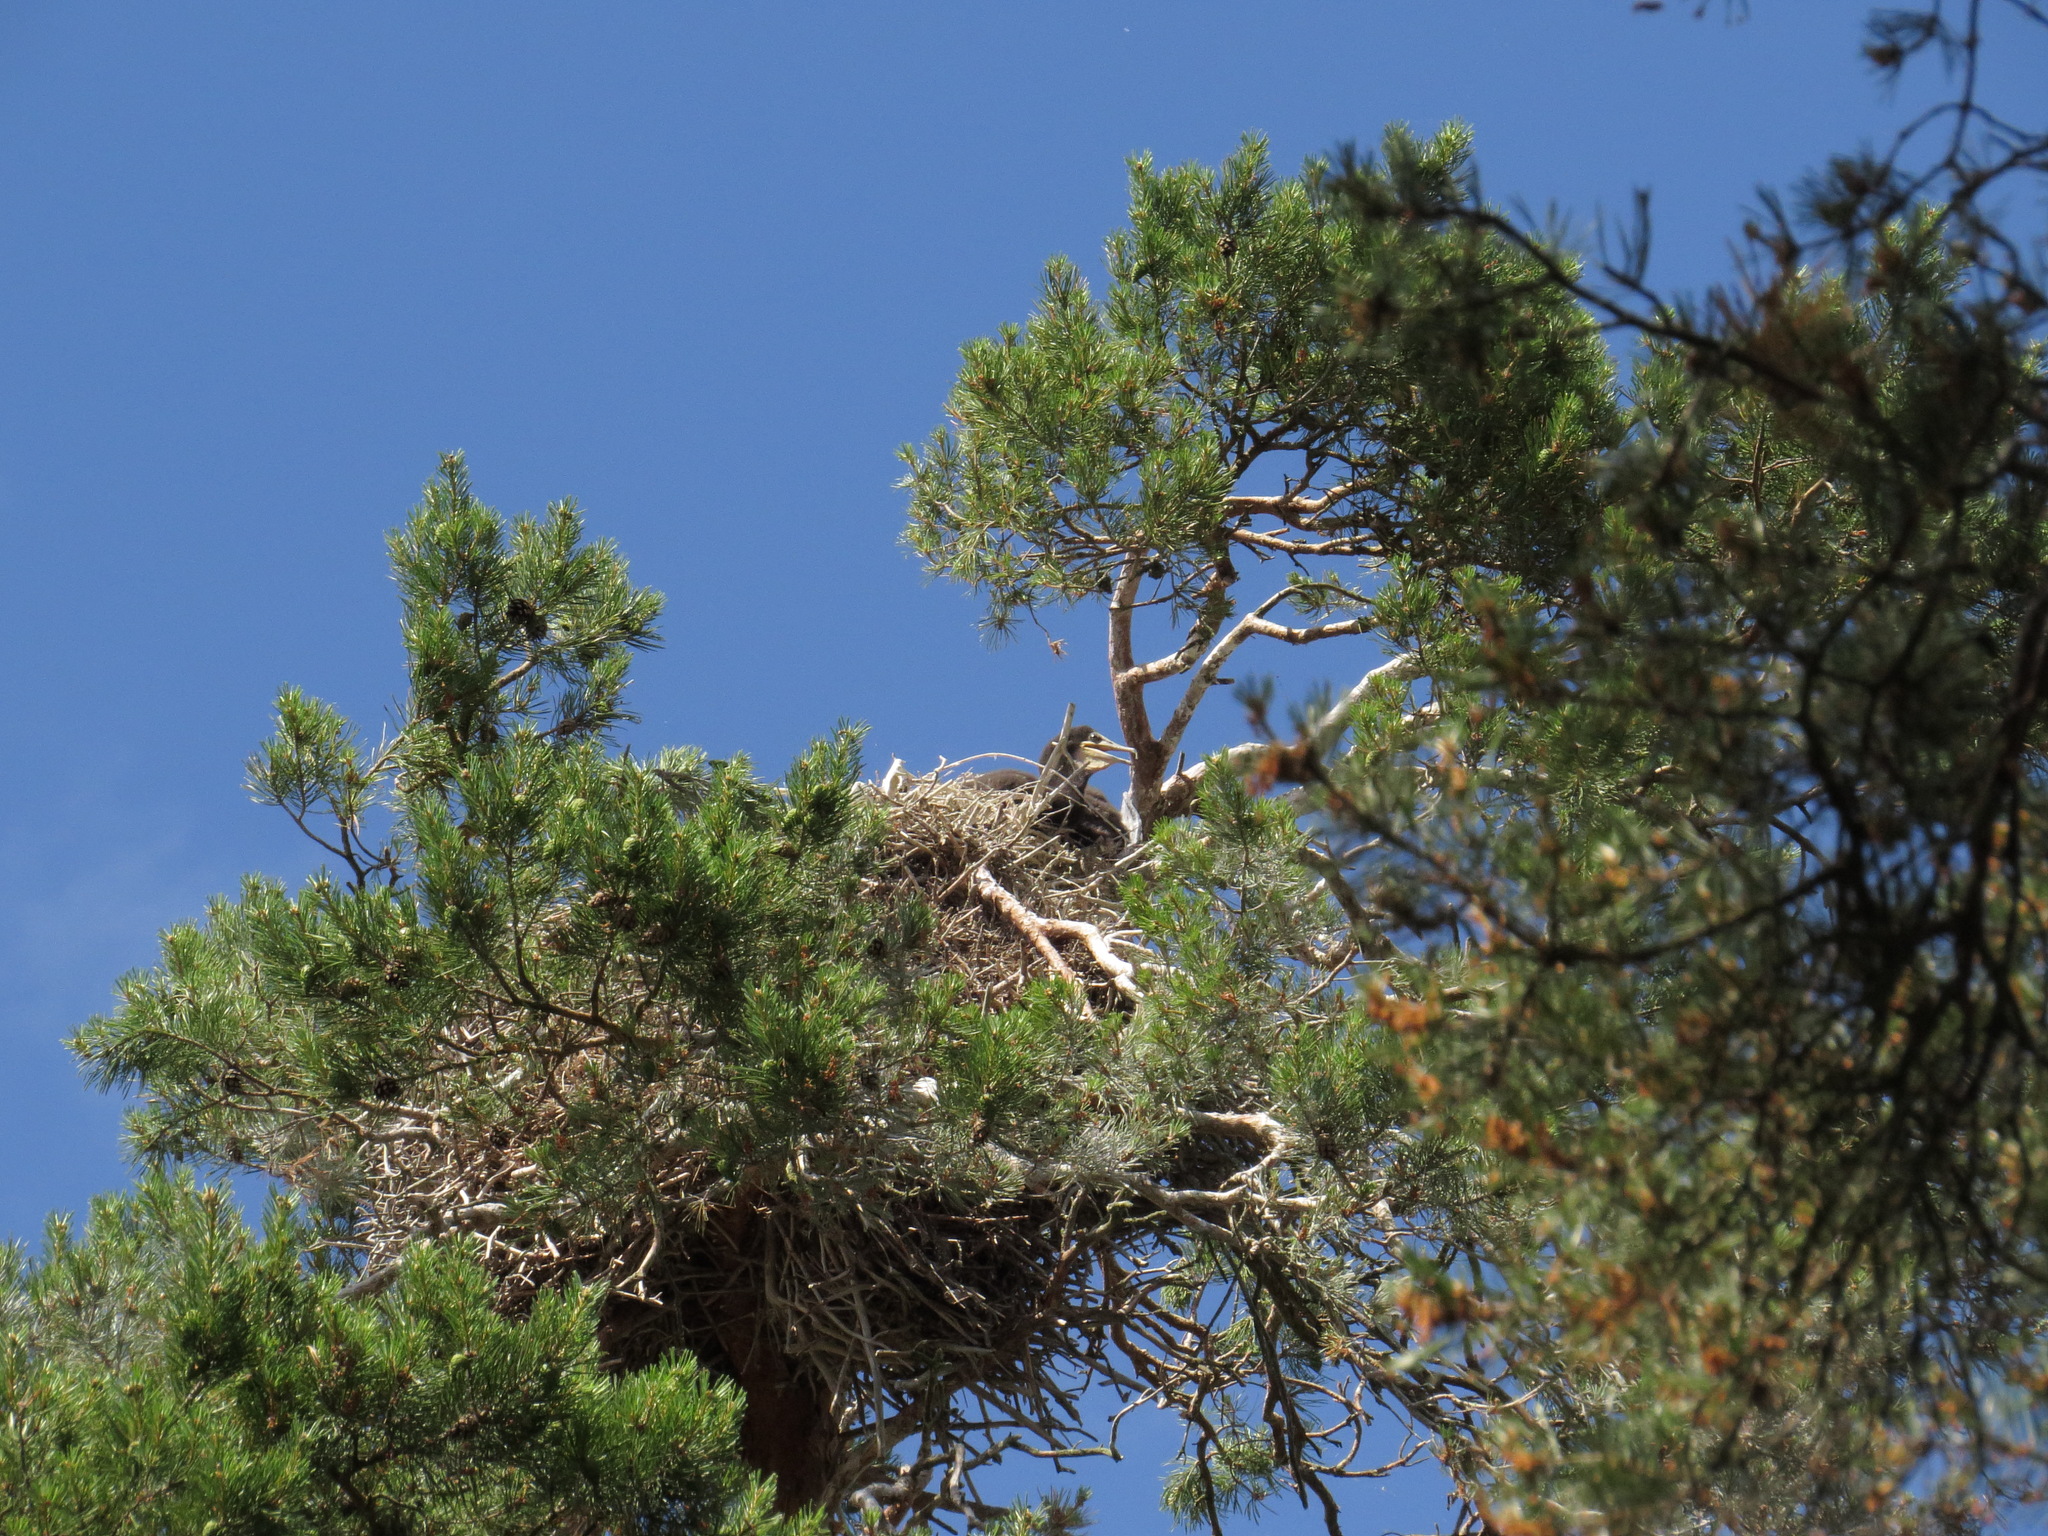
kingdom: Animalia
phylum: Chordata
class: Aves
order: Suliformes
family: Phalacrocoracidae
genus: Phalacrocorax
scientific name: Phalacrocorax carbo
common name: Great cormorant
